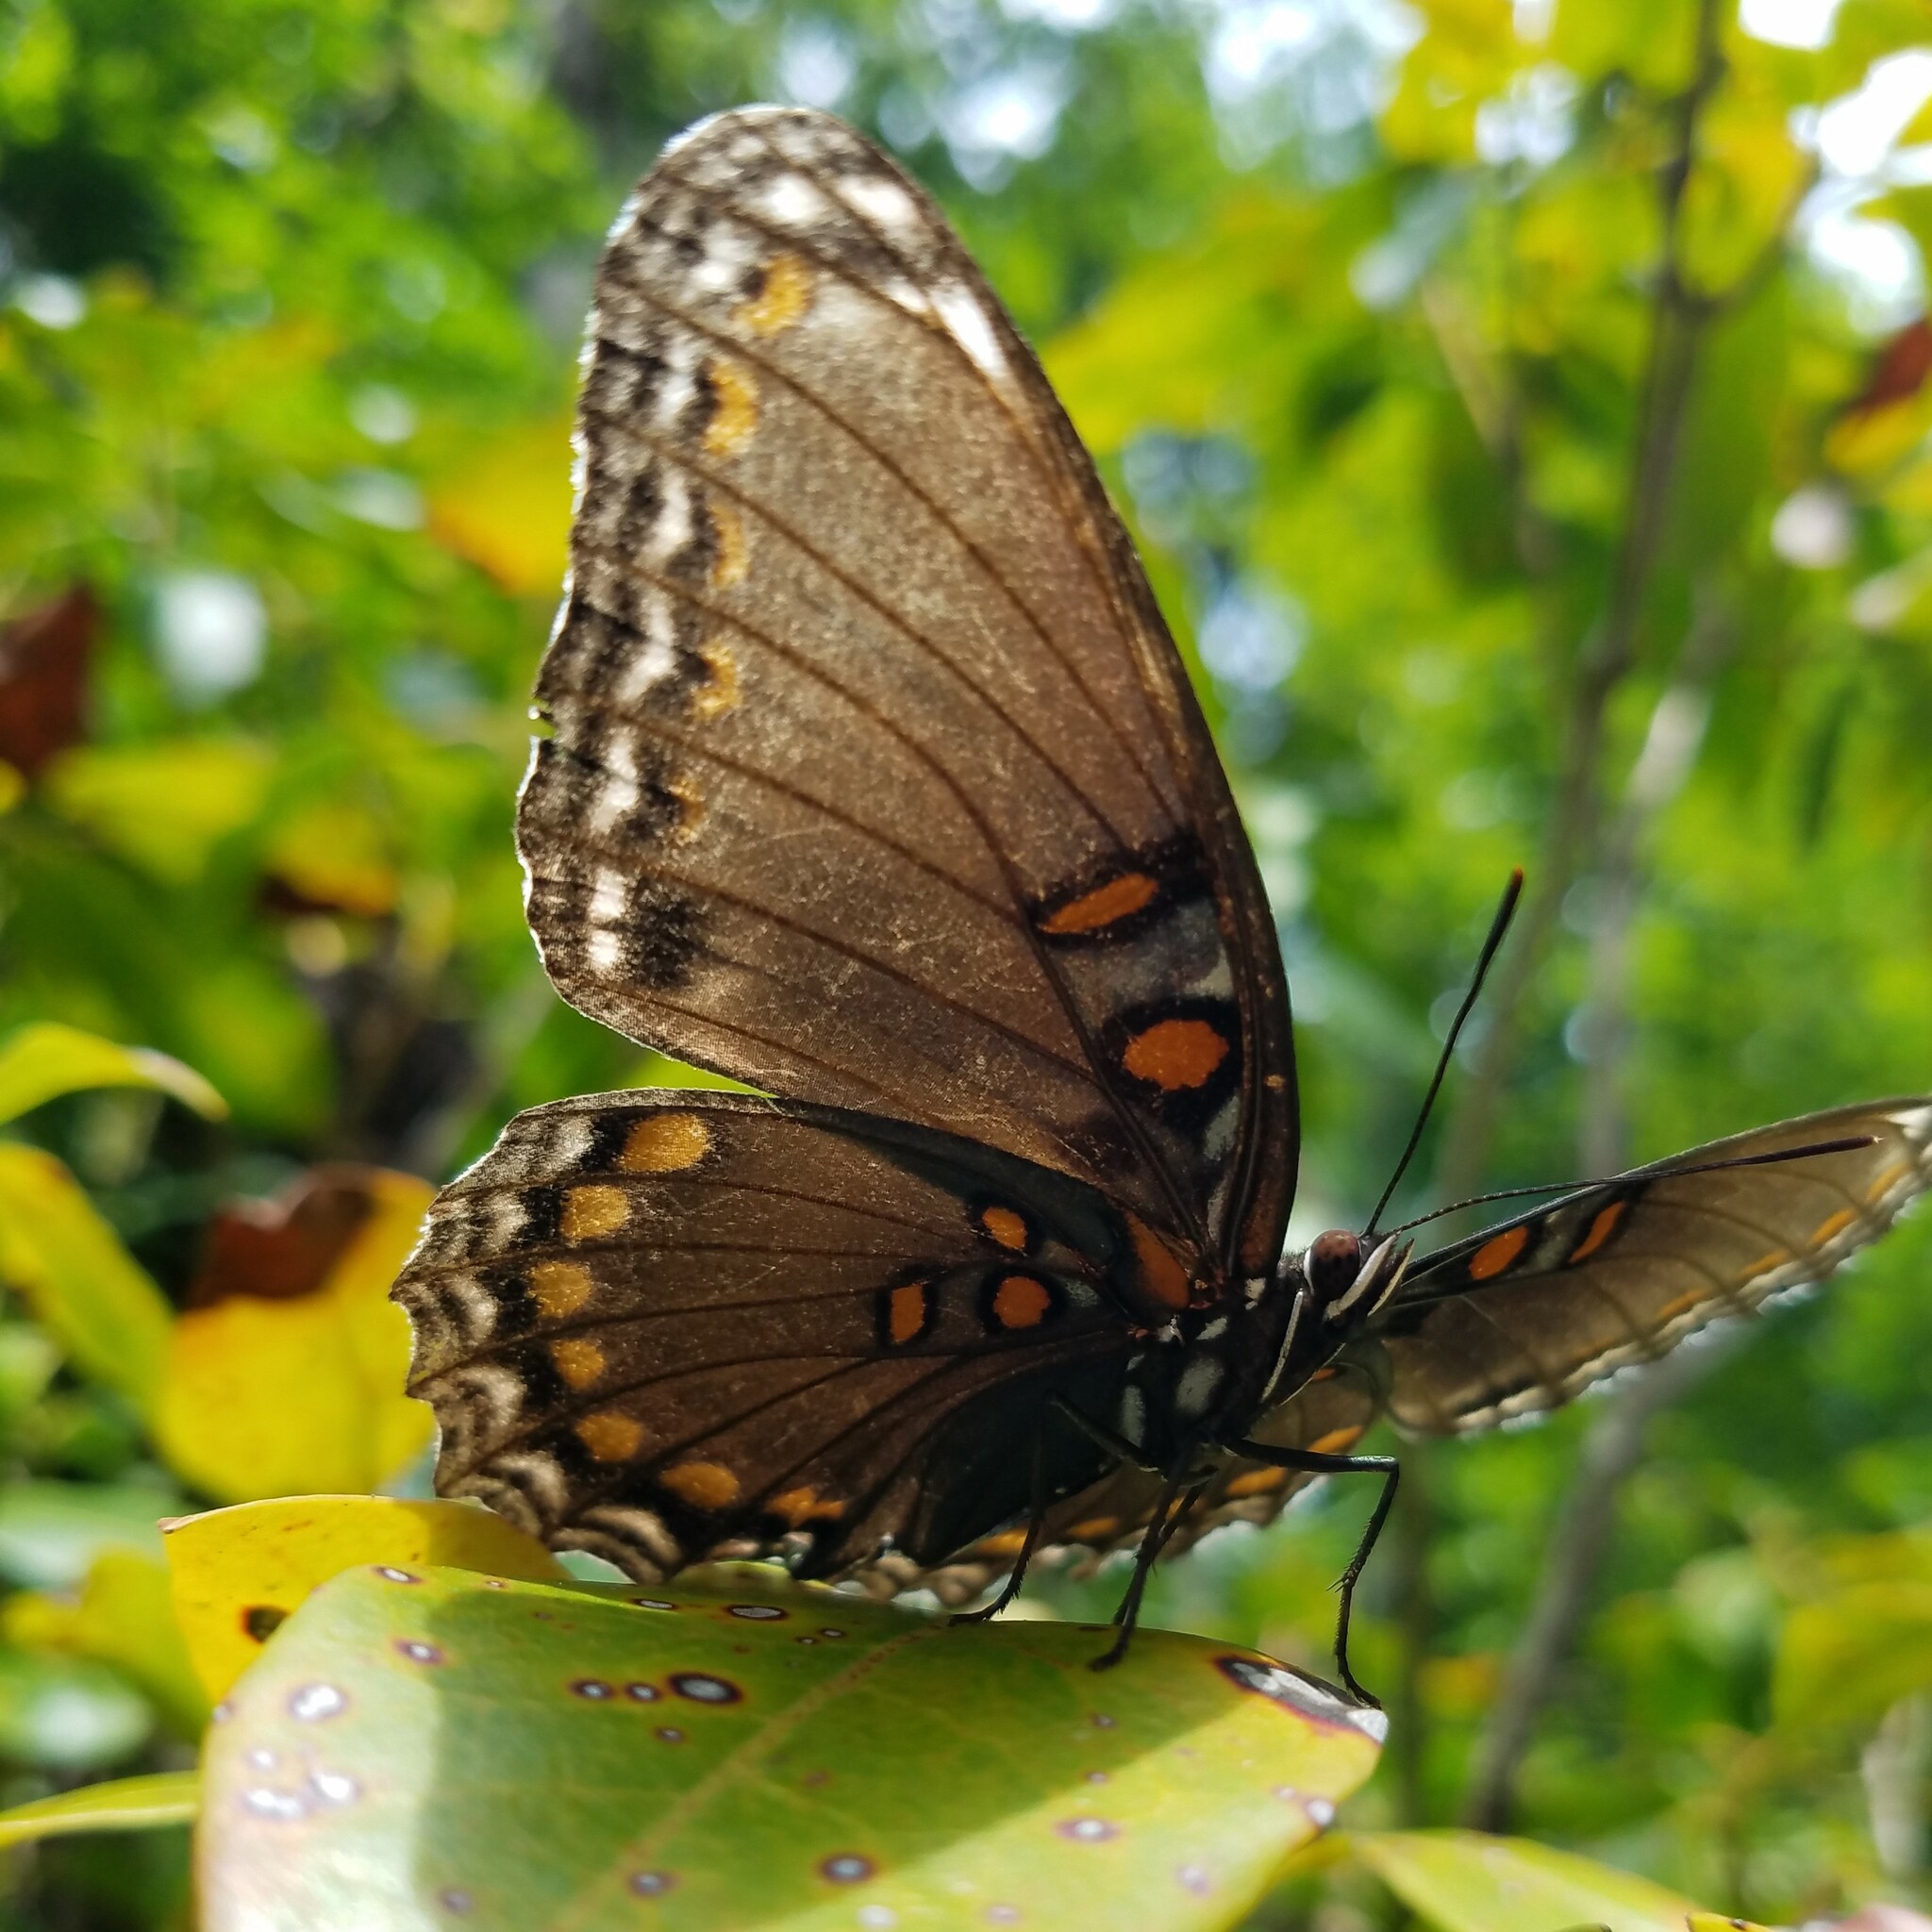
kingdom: Animalia
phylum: Arthropoda
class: Insecta
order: Lepidoptera
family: Nymphalidae
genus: Limenitis
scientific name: Limenitis astyanax
